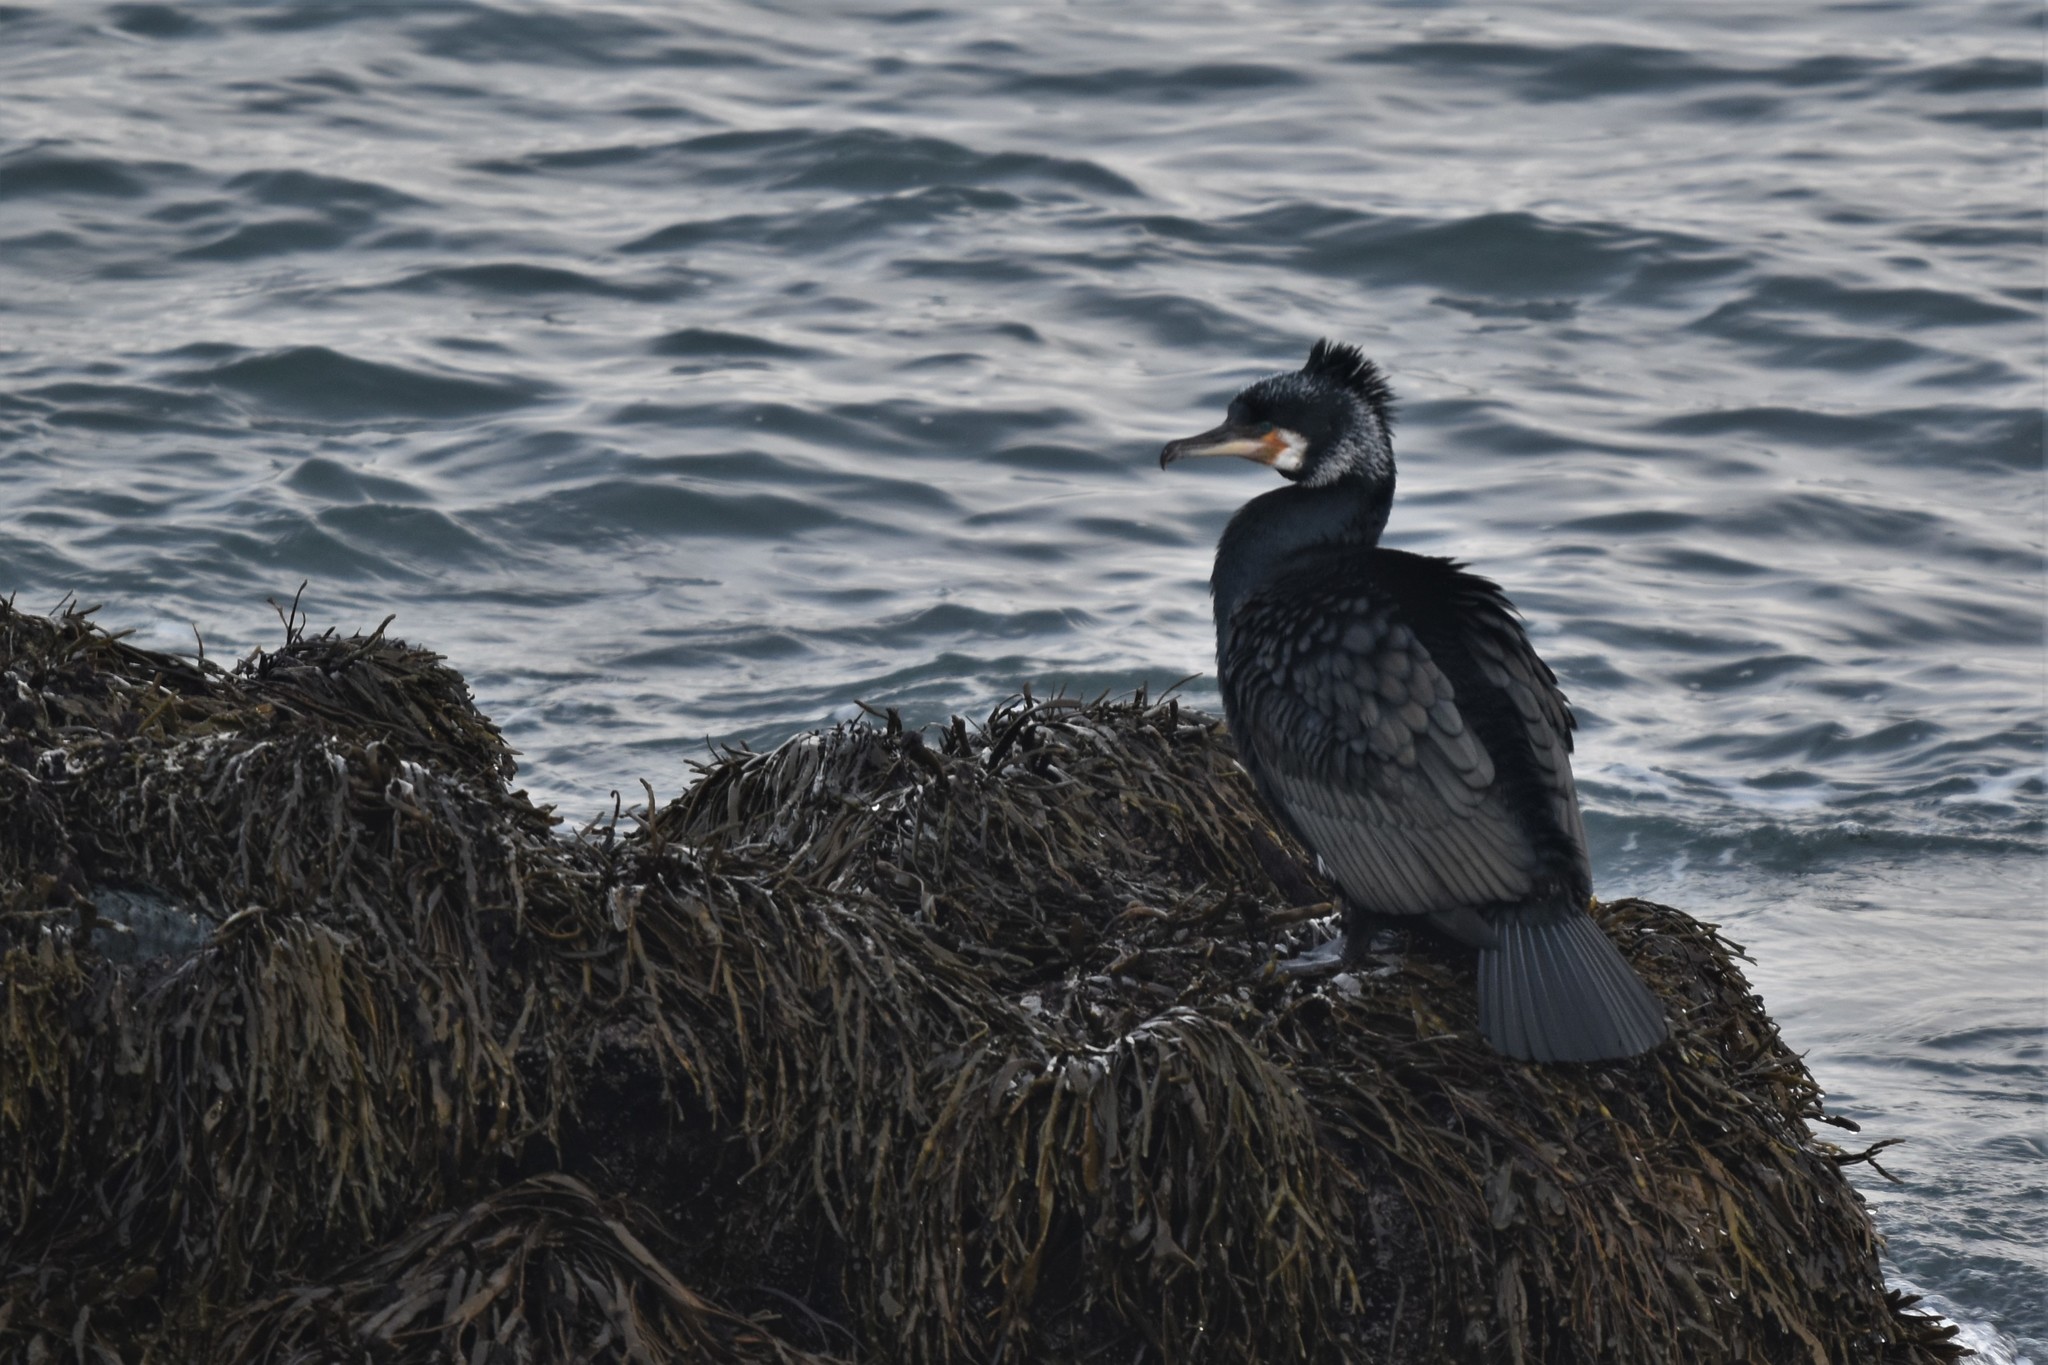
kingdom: Animalia
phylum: Chordata
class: Aves
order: Suliformes
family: Phalacrocoracidae
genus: Phalacrocorax
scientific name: Phalacrocorax carbo
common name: Great cormorant
